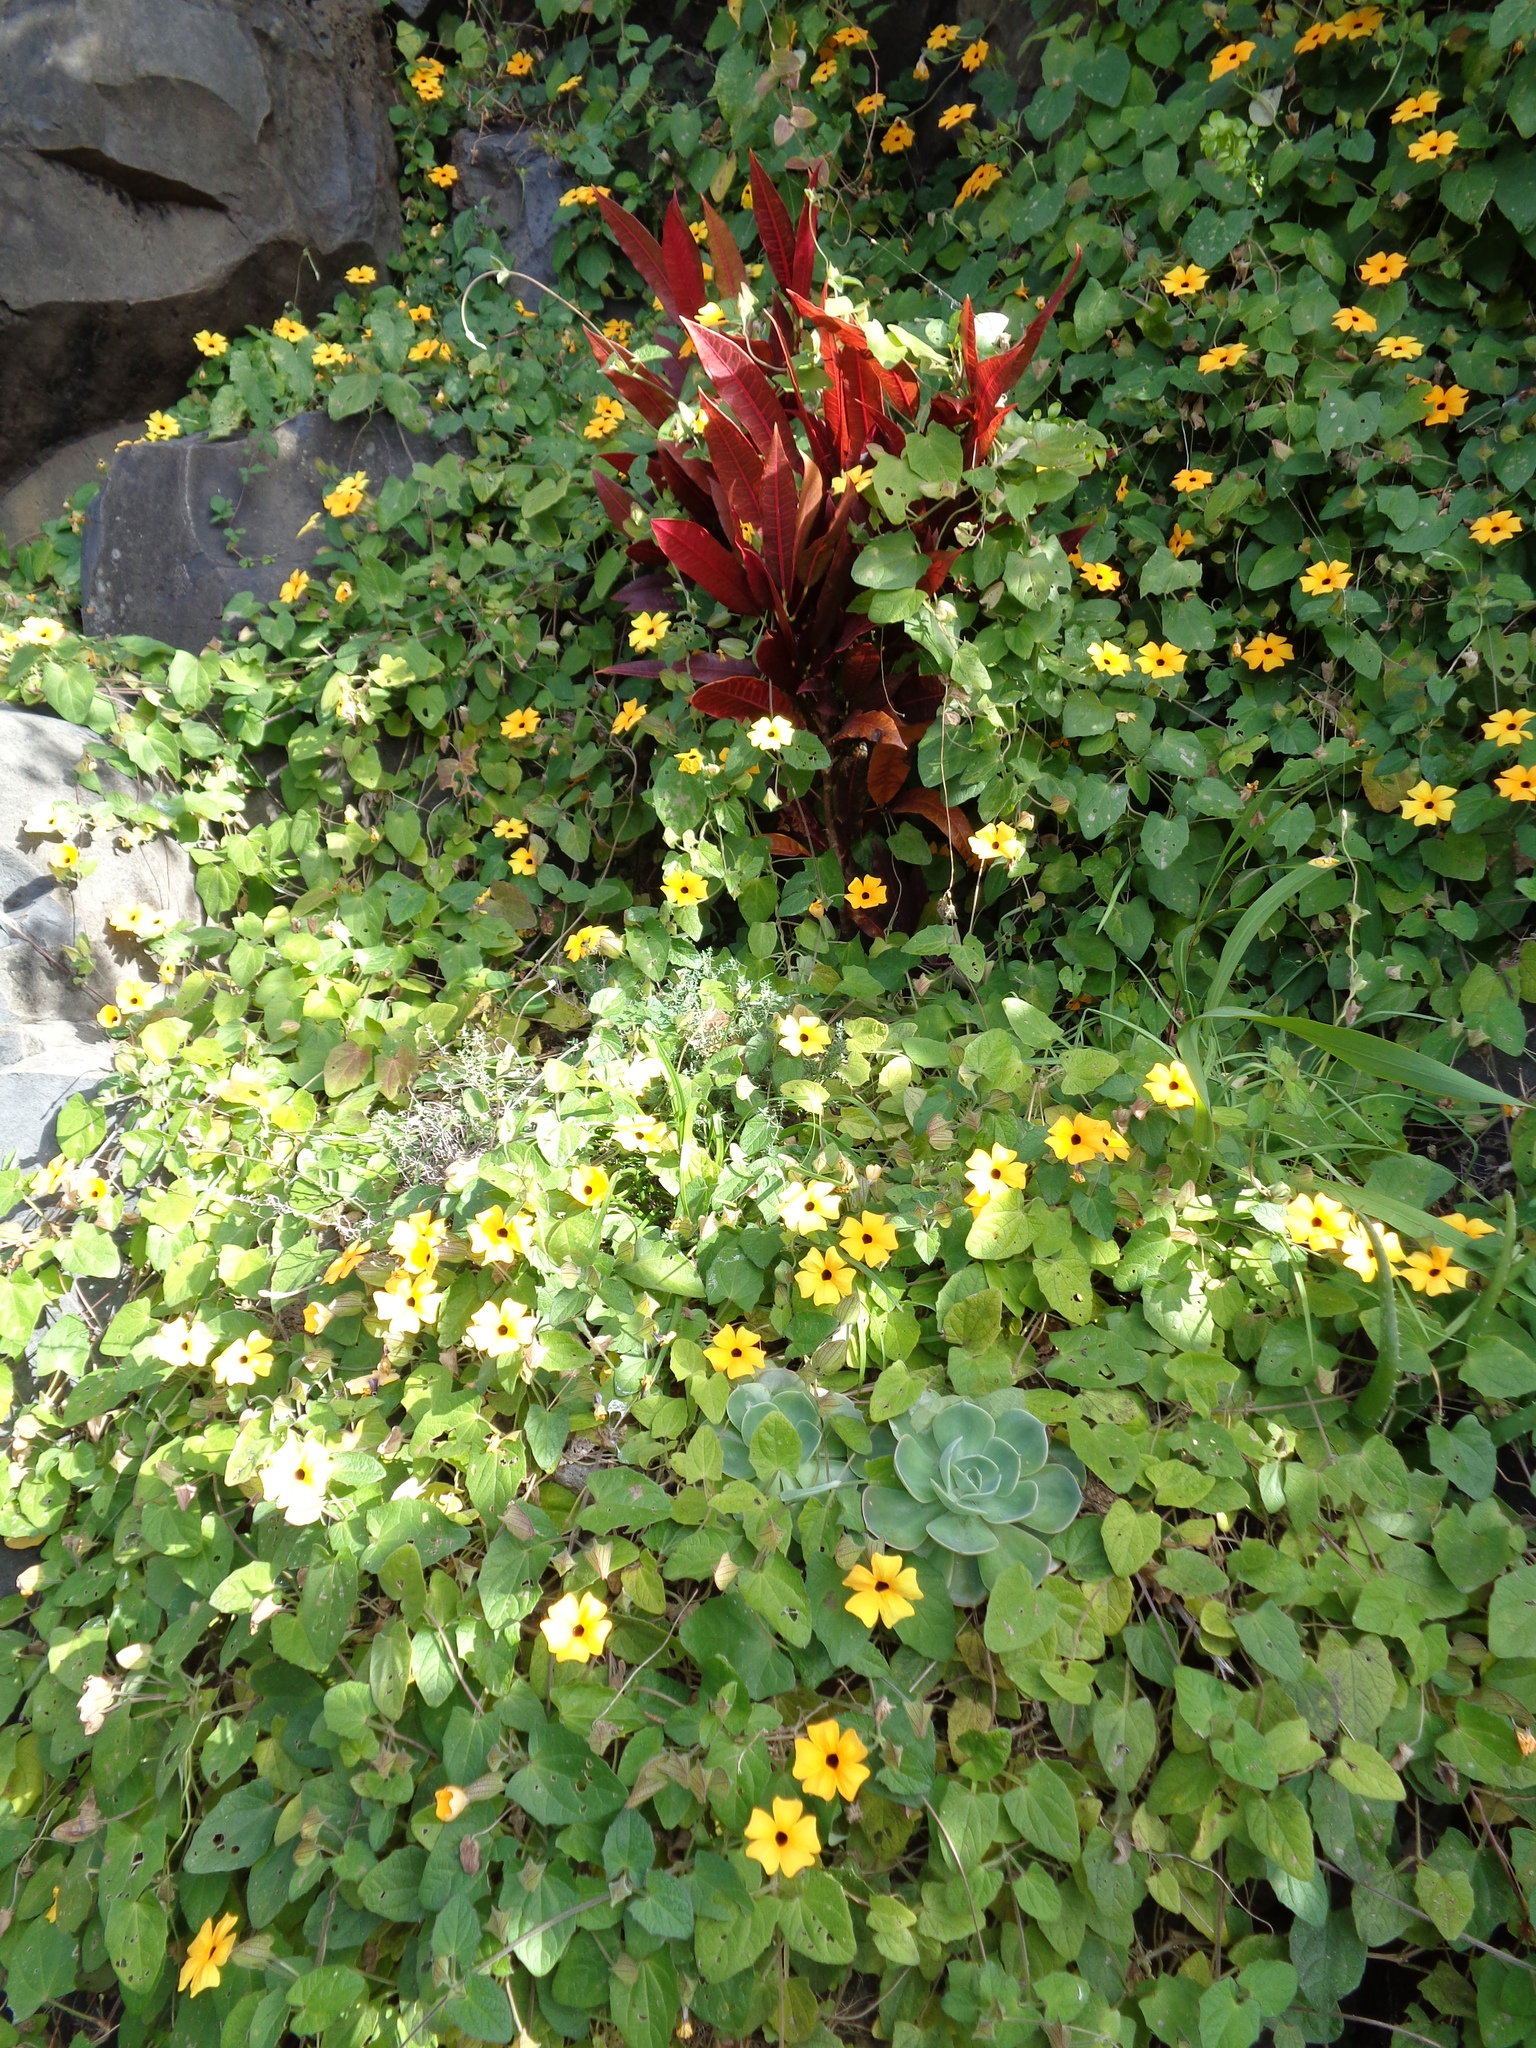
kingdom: Plantae
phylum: Tracheophyta
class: Magnoliopsida
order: Lamiales
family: Acanthaceae
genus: Thunbergia
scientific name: Thunbergia alata
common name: Blackeyed susan vine
